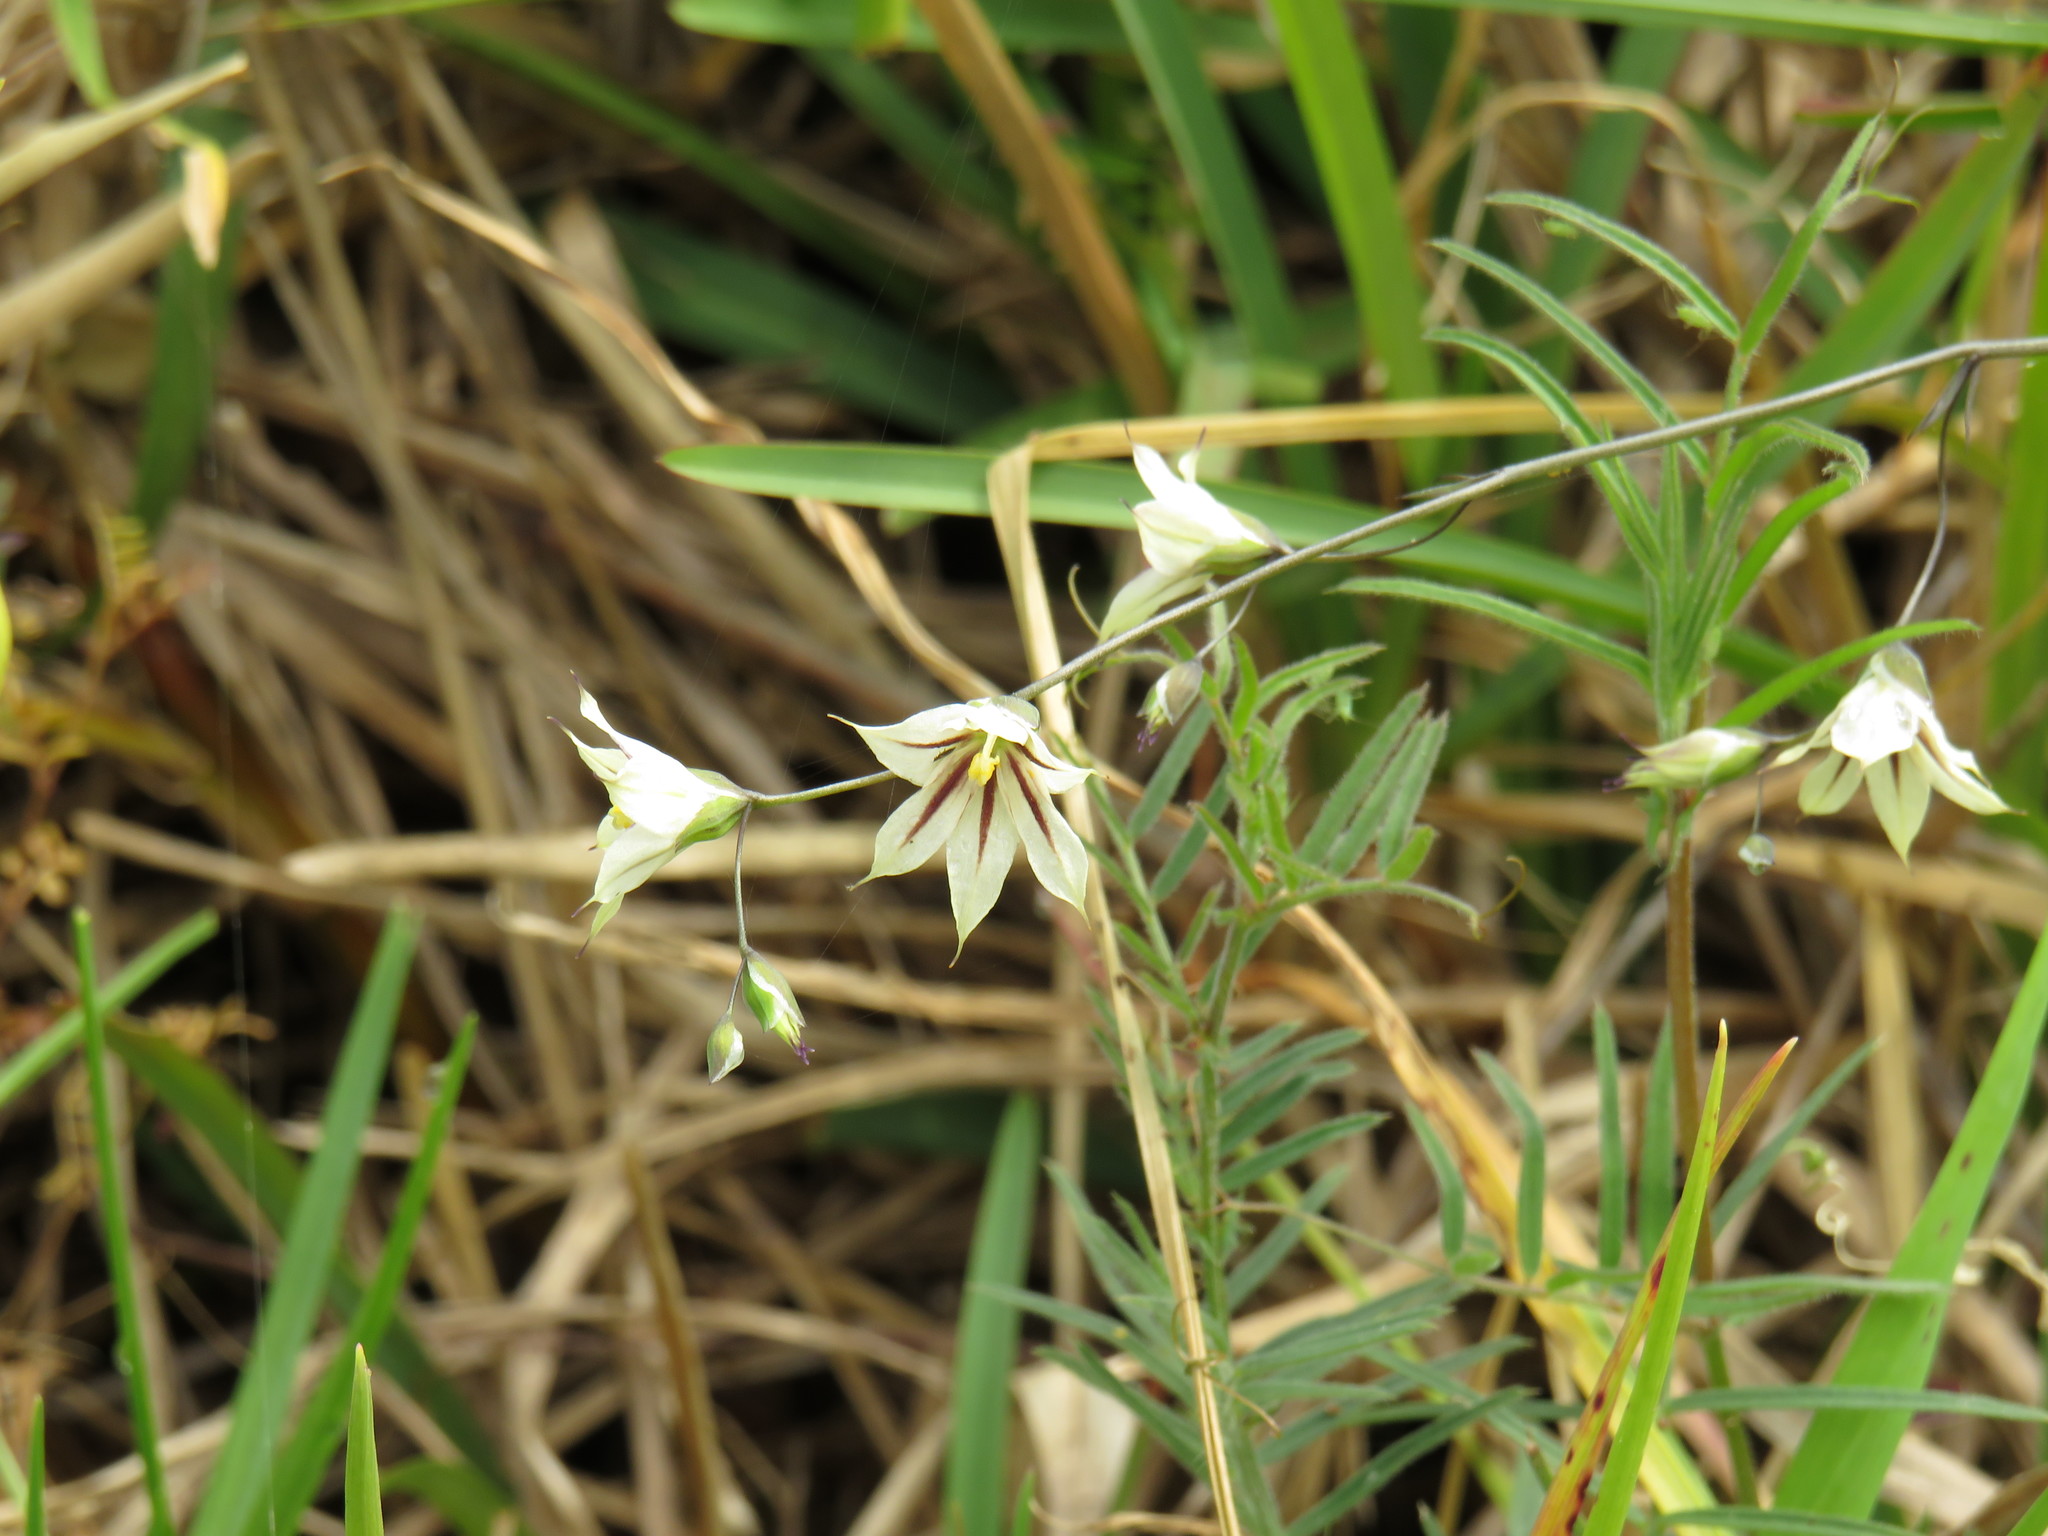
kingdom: Plantae
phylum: Tracheophyta
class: Liliopsida
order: Asparagales
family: Iridaceae
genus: Melasphaerula
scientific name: Melasphaerula graminea
